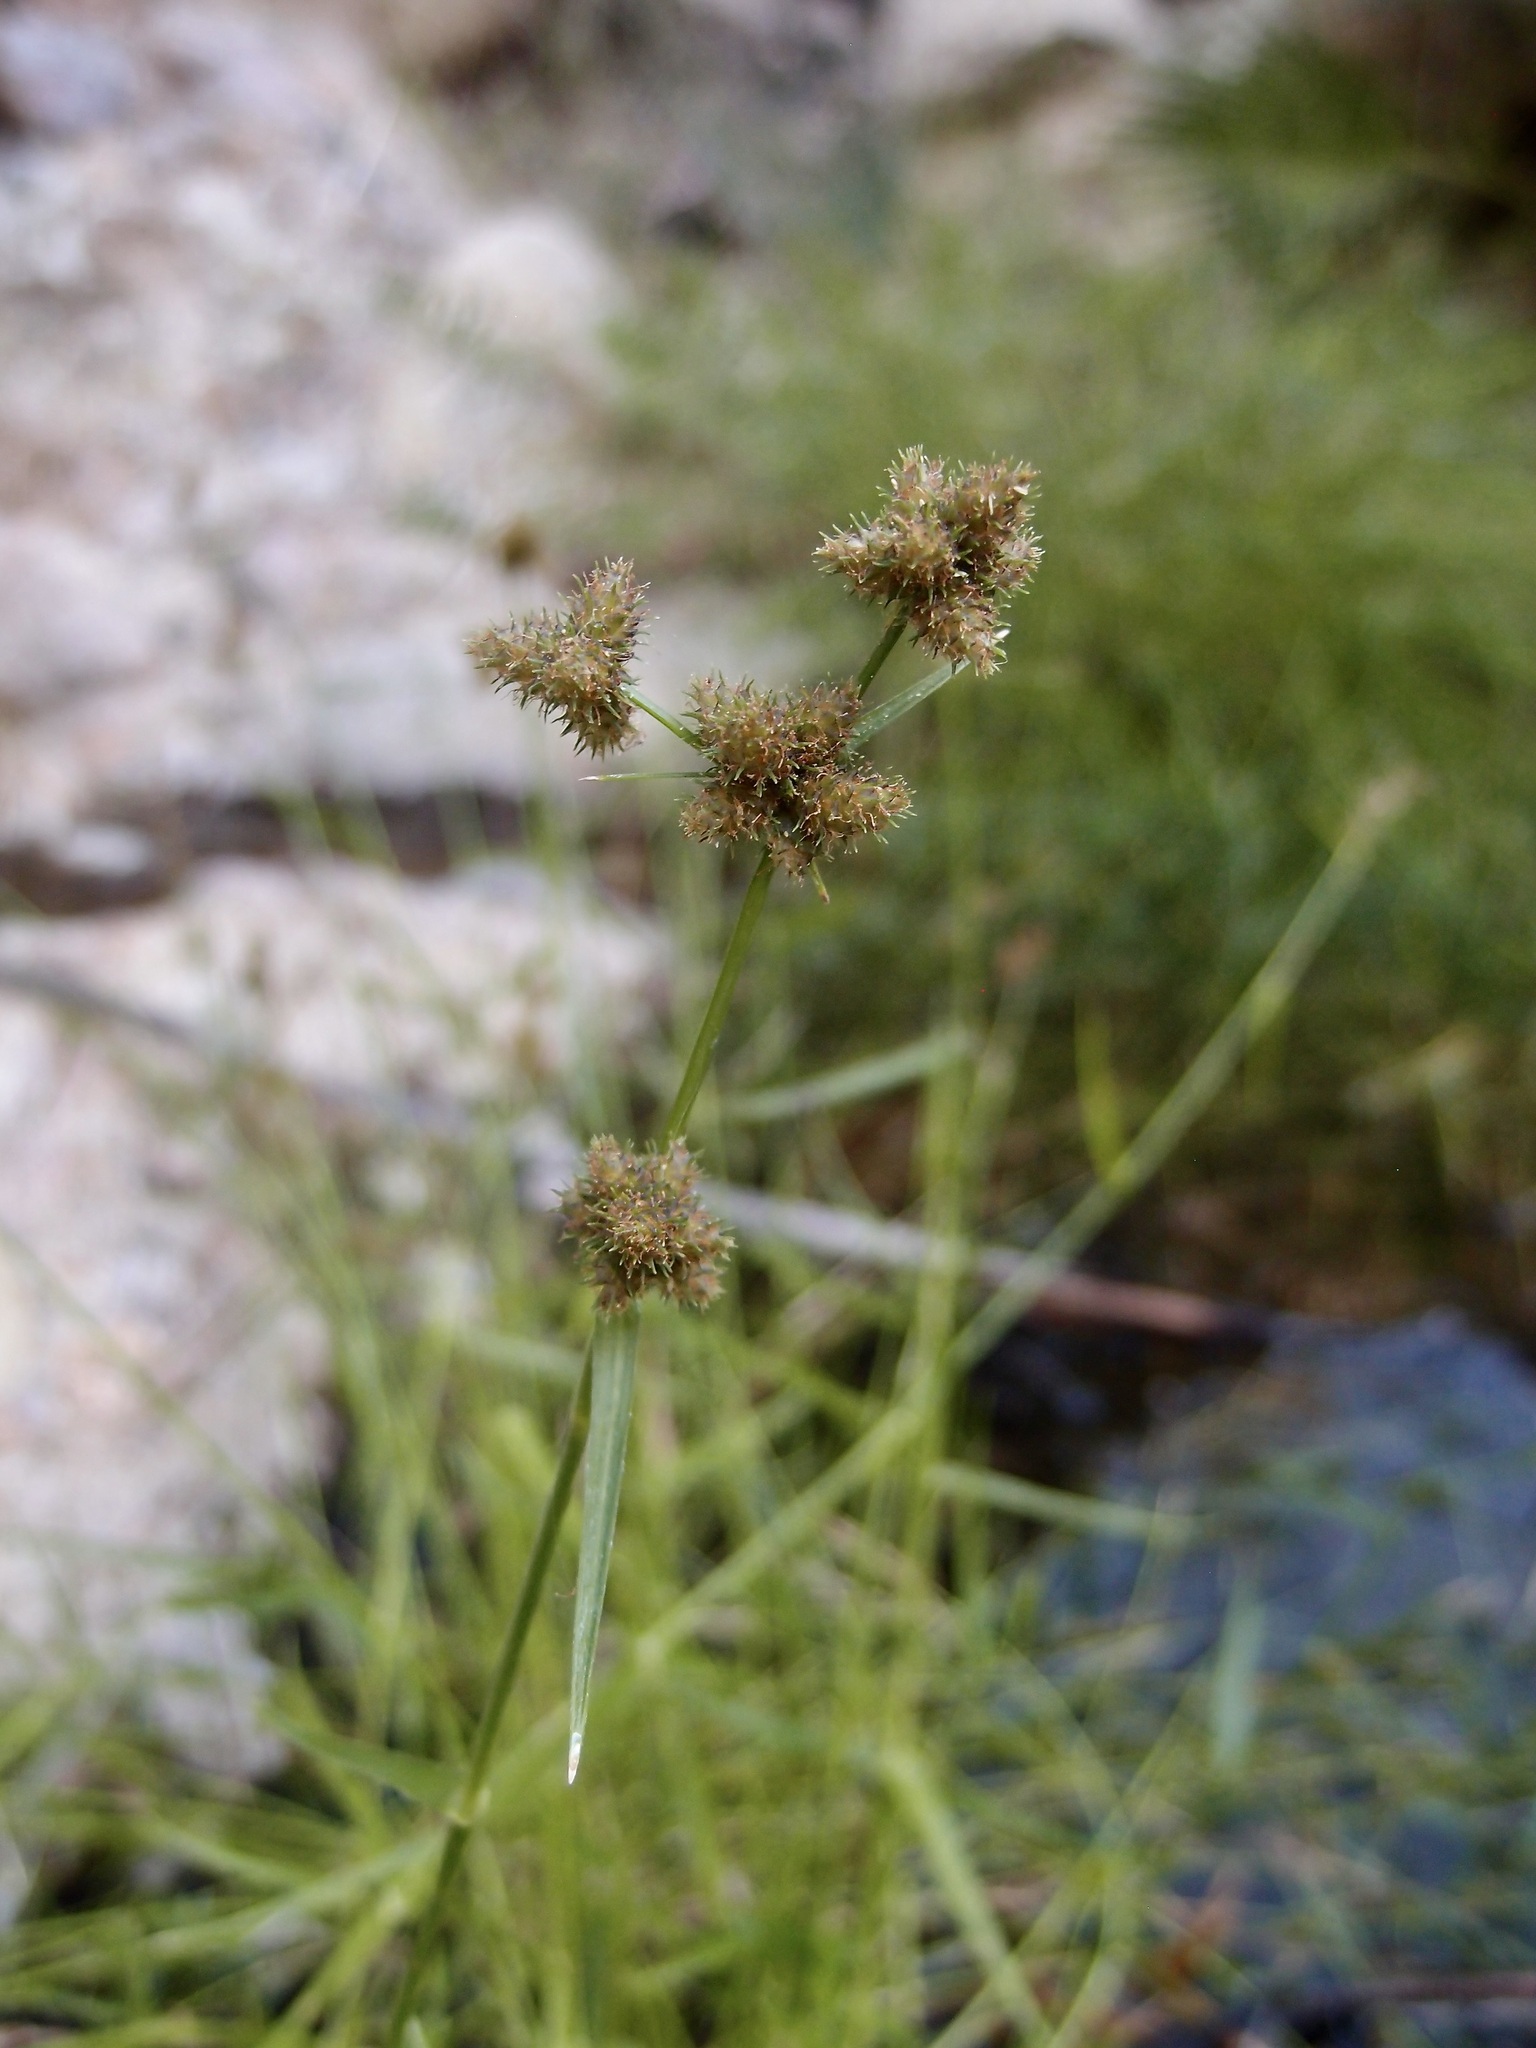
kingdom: Plantae
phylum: Tracheophyta
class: Liliopsida
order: Poales
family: Cyperaceae
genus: Fuirena
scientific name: Fuirena simplex
